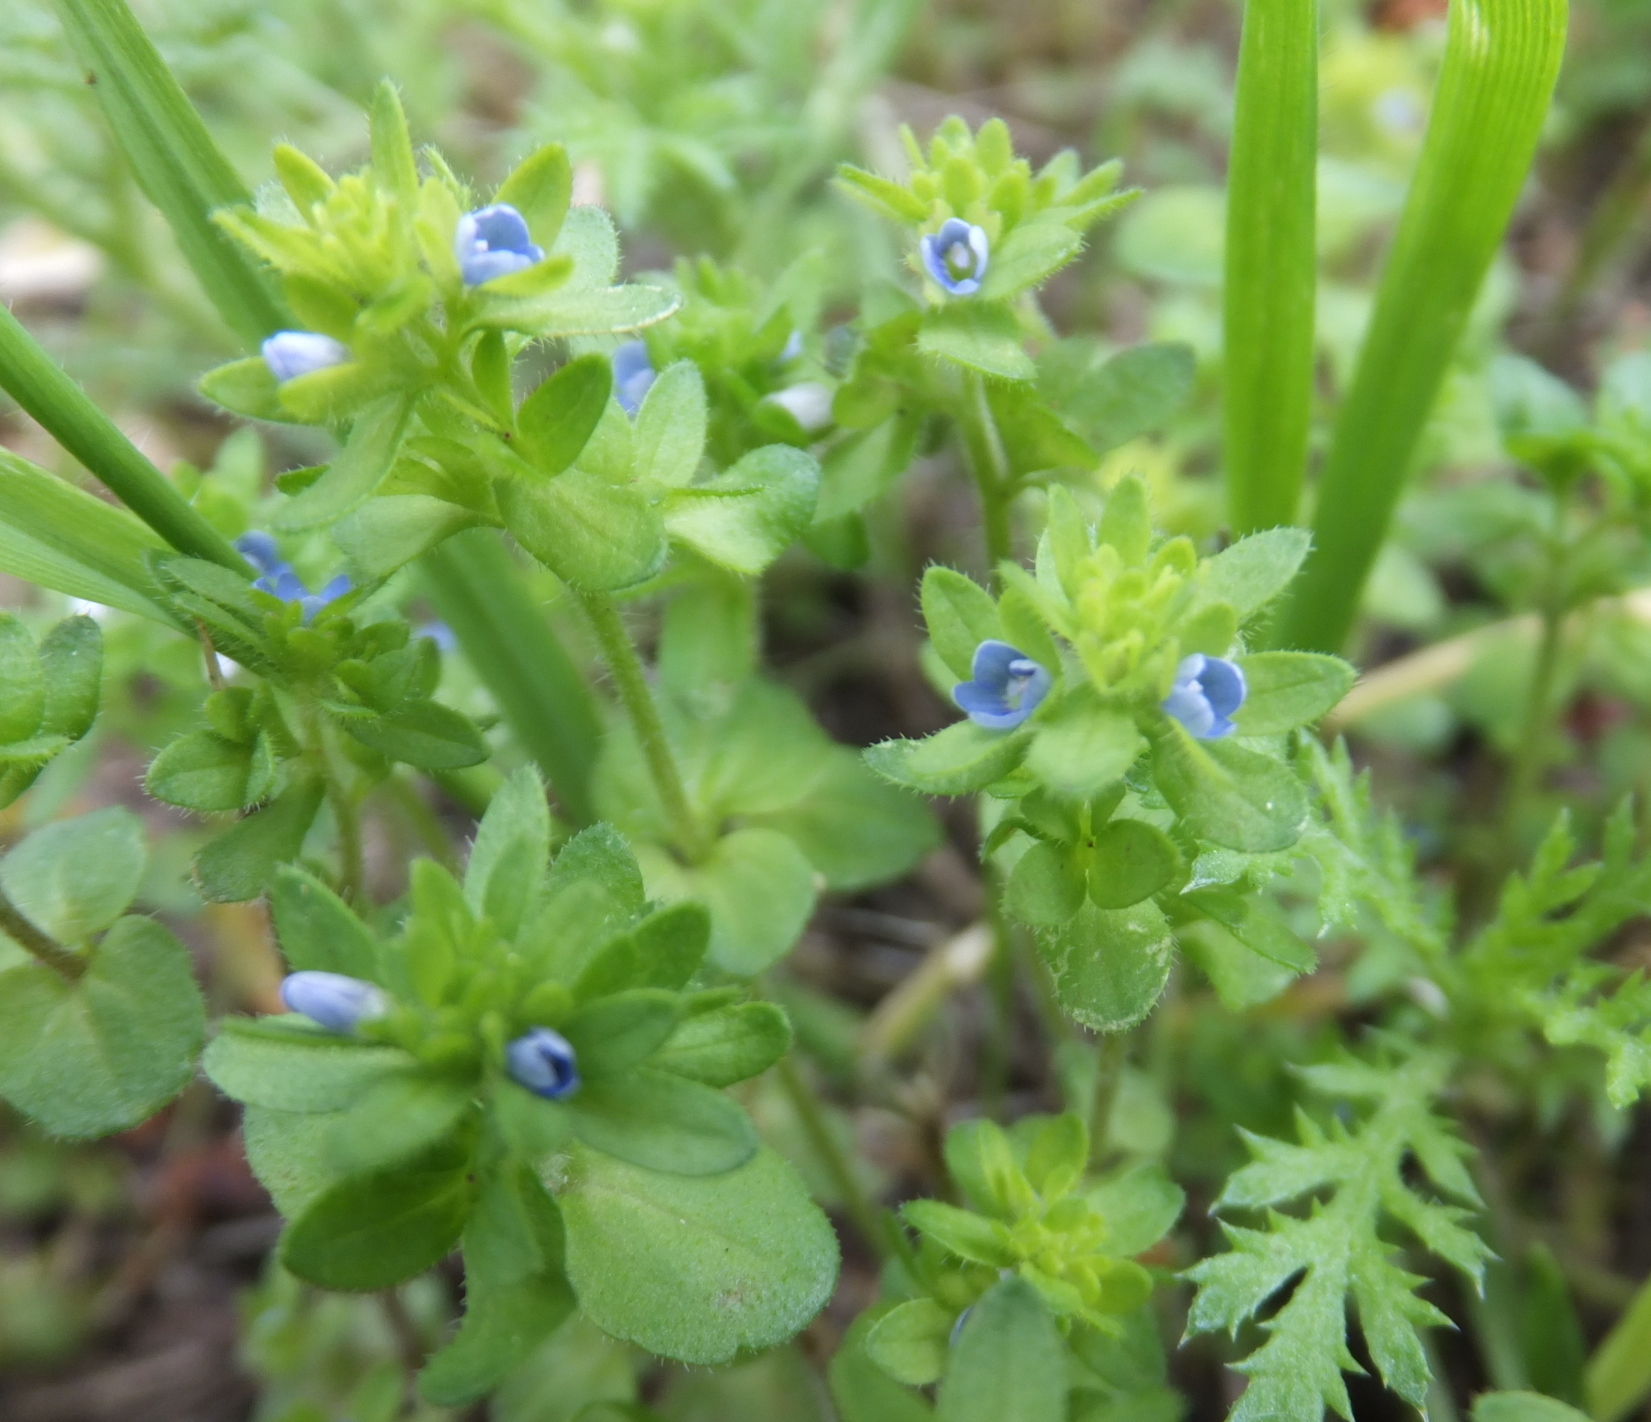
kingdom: Plantae
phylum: Tracheophyta
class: Magnoliopsida
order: Lamiales
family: Plantaginaceae
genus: Veronica
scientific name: Veronica arvensis
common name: Corn speedwell
